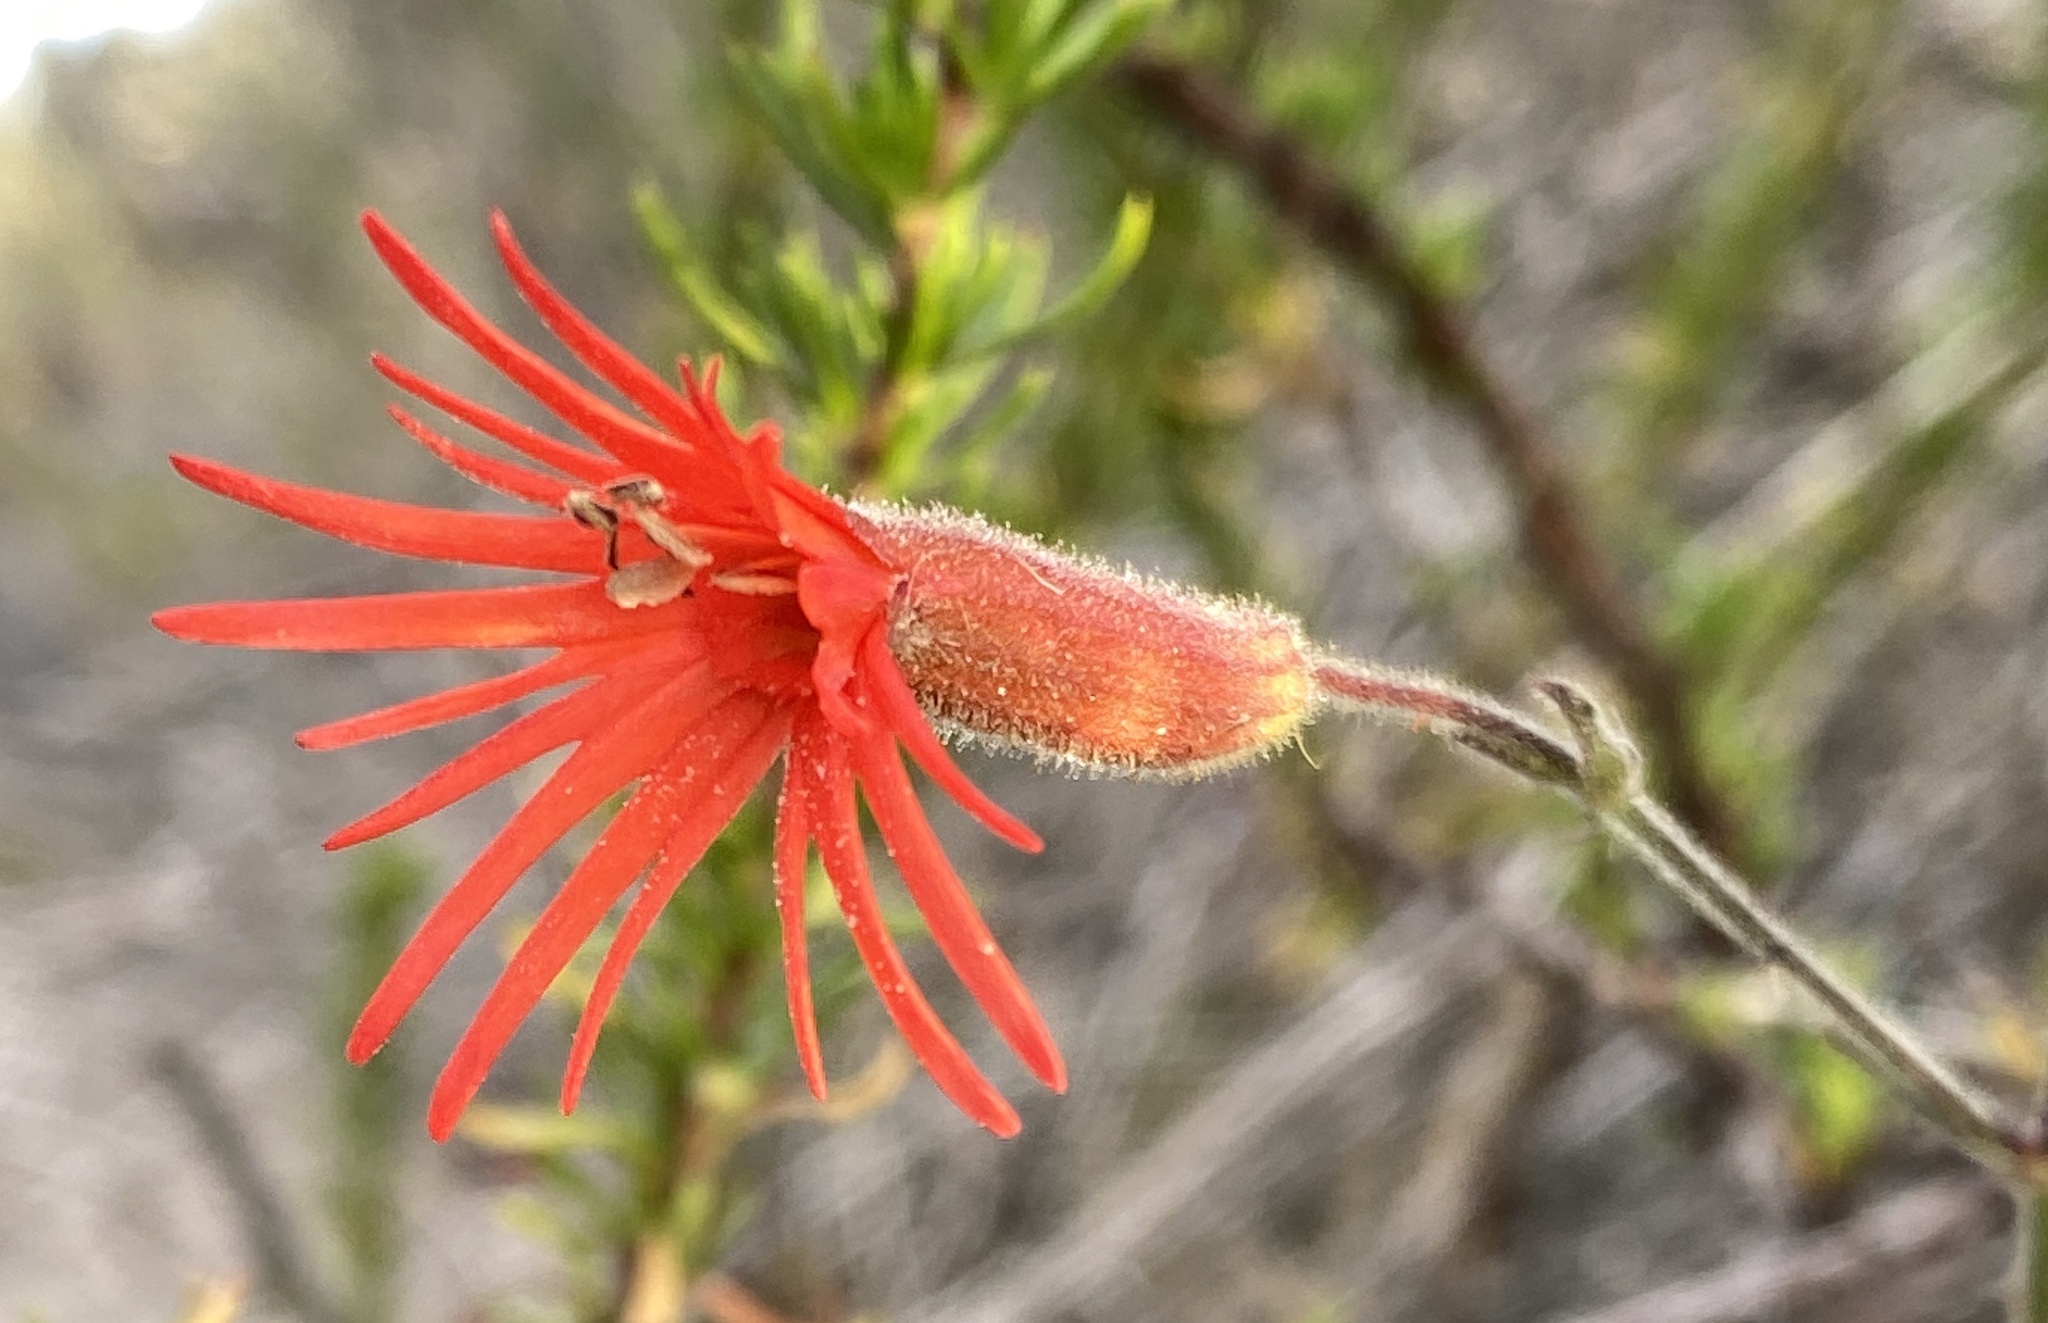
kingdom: Plantae
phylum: Tracheophyta
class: Magnoliopsida
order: Caryophyllales
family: Caryophyllaceae
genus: Silene
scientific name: Silene laciniata
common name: Indian-pink
